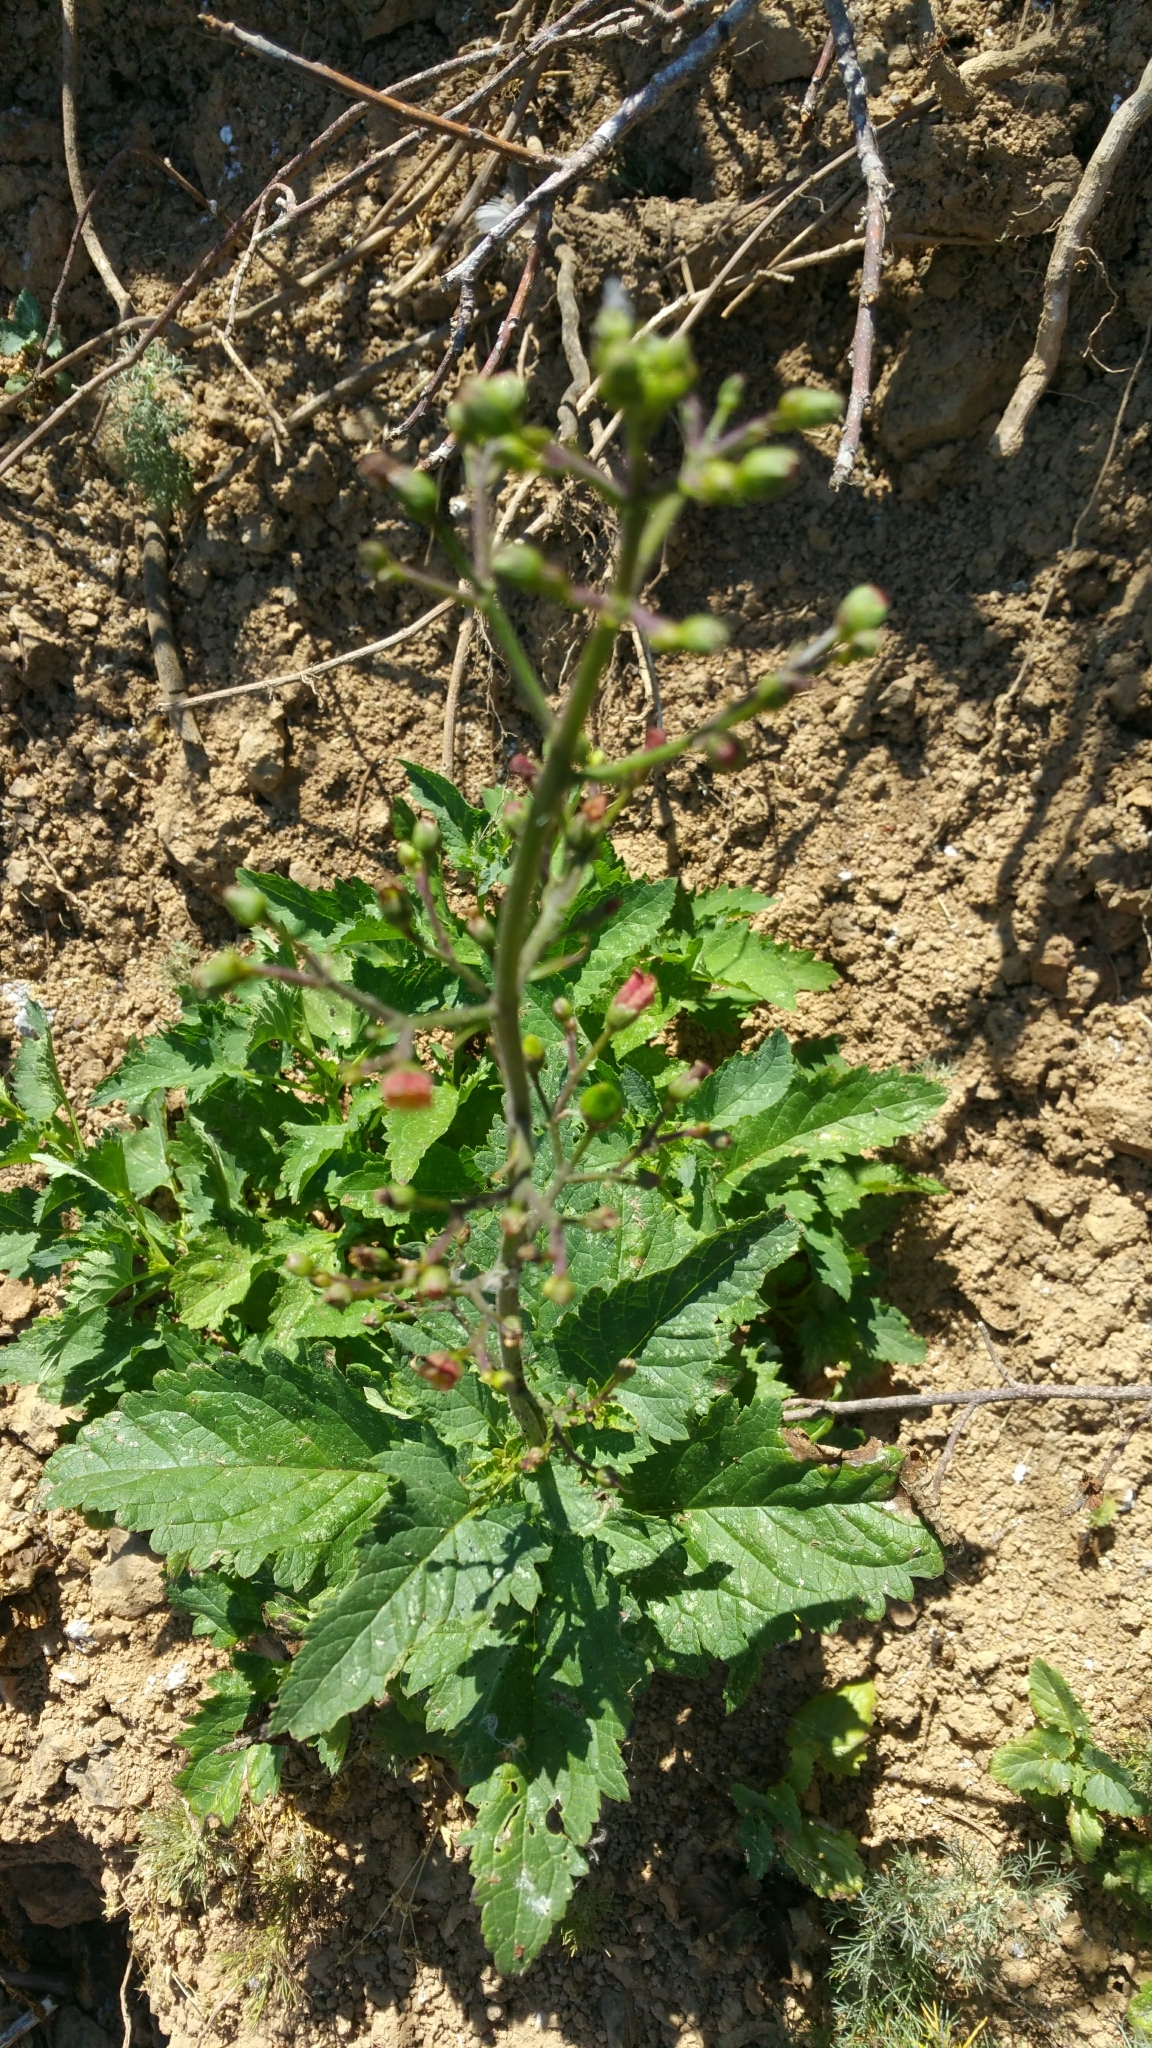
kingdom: Plantae
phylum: Tracheophyta
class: Magnoliopsida
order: Lamiales
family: Scrophulariaceae
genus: Scrophularia
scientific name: Scrophularia californica
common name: California figwort
